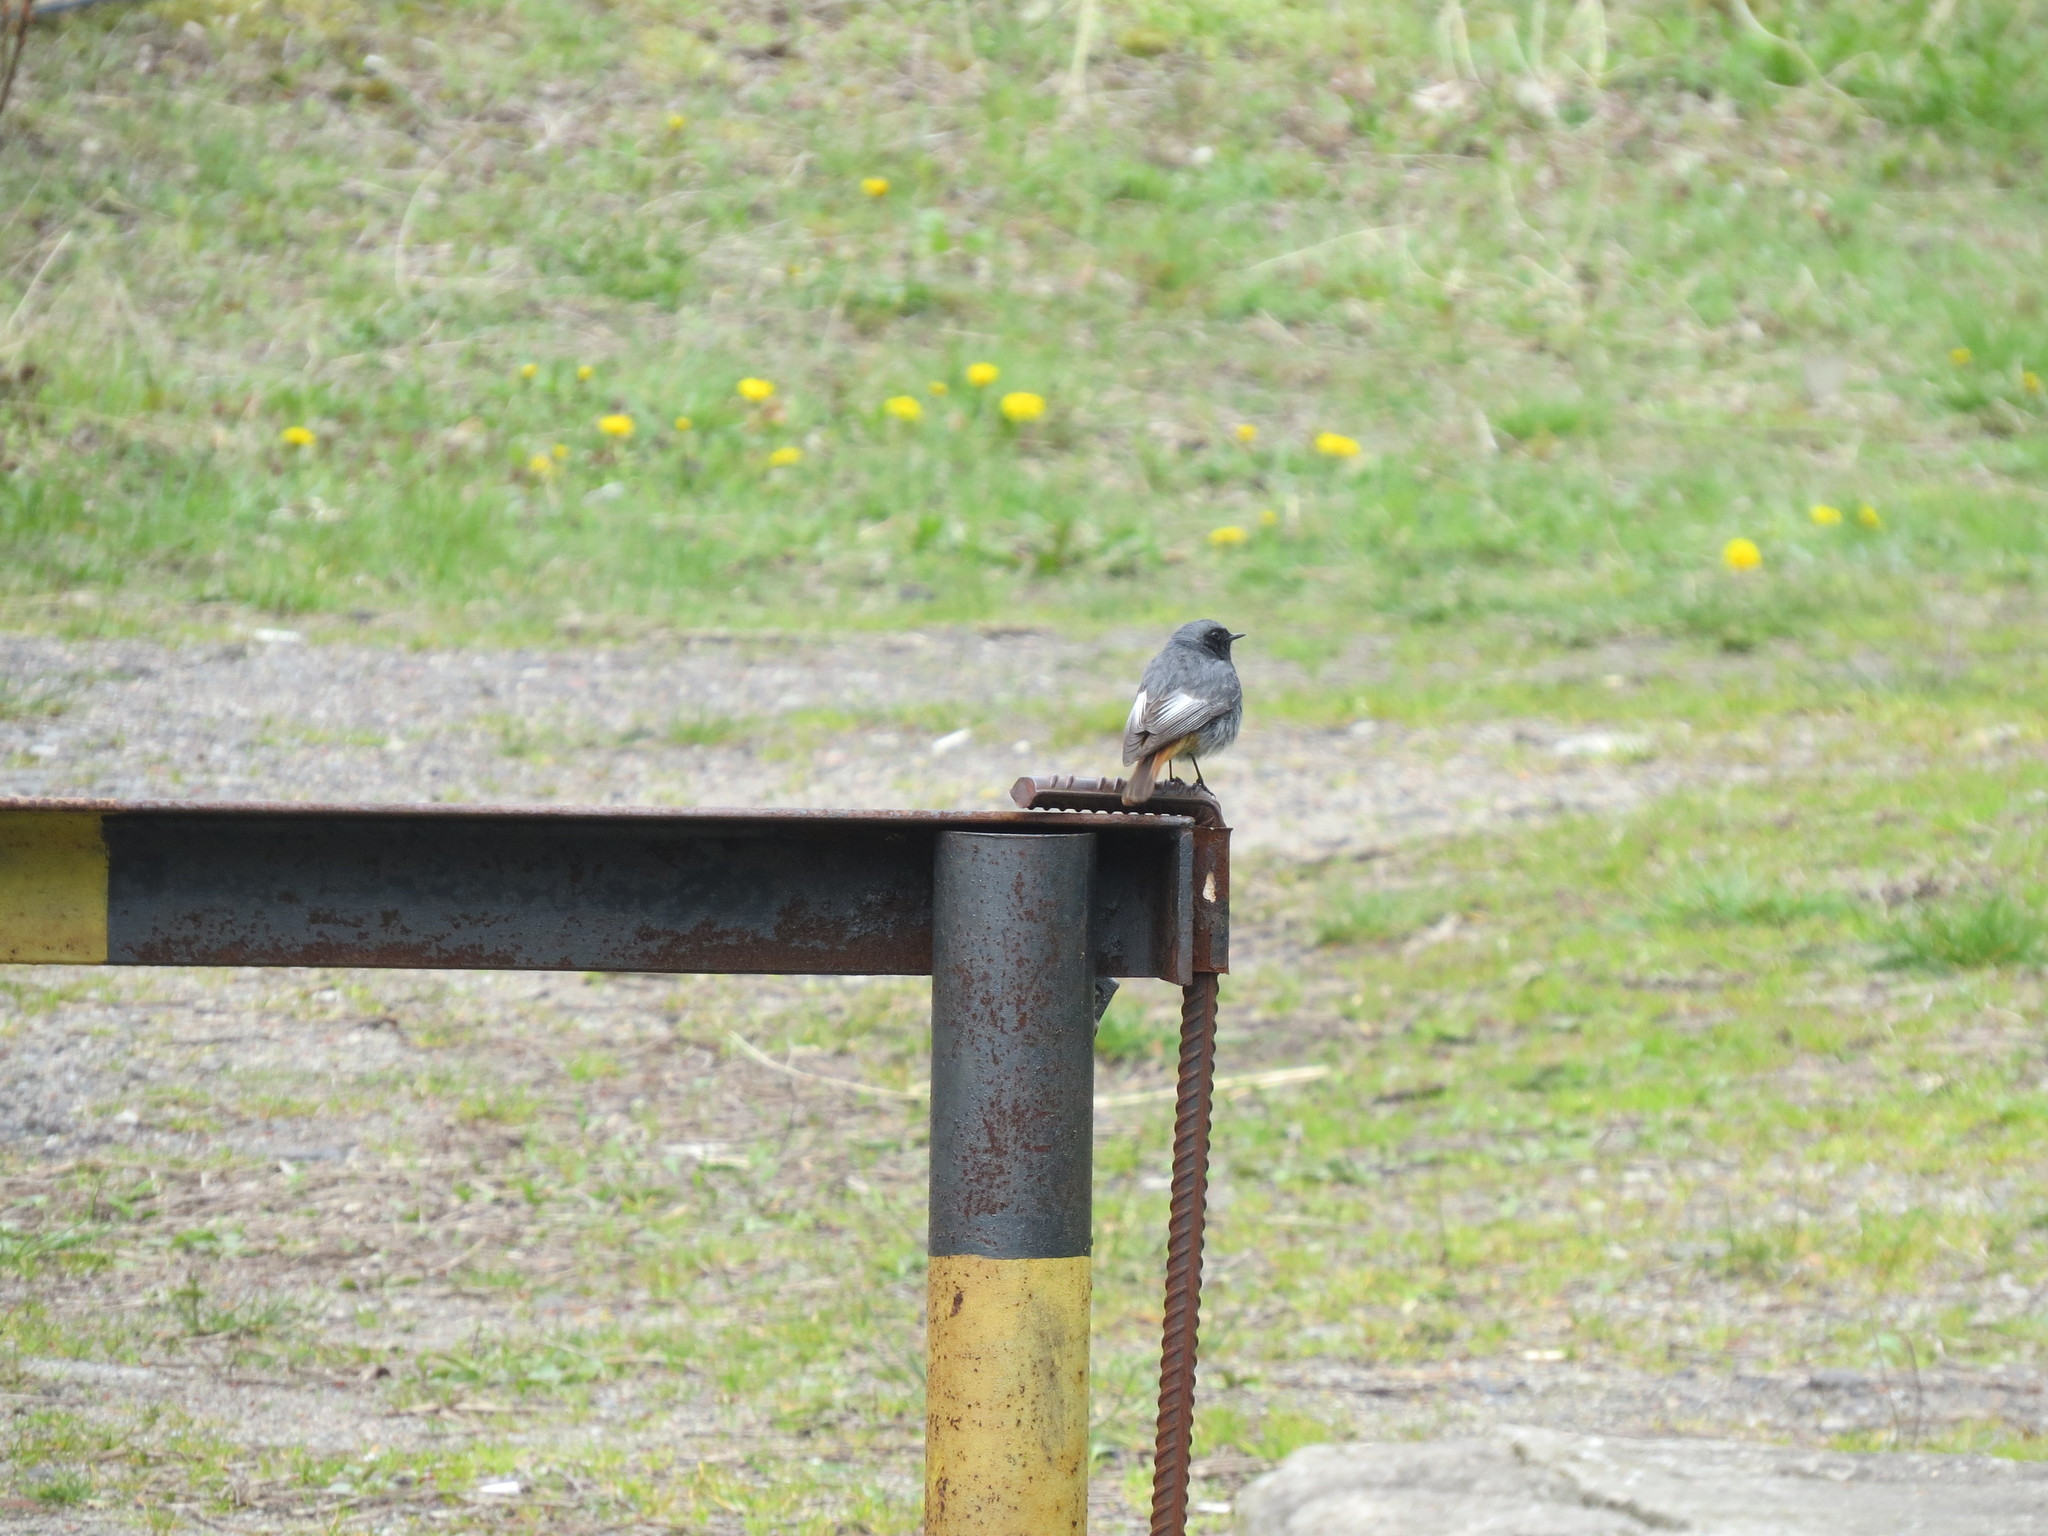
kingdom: Animalia
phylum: Chordata
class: Aves
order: Passeriformes
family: Muscicapidae
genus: Phoenicurus
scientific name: Phoenicurus ochruros
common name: Black redstart
